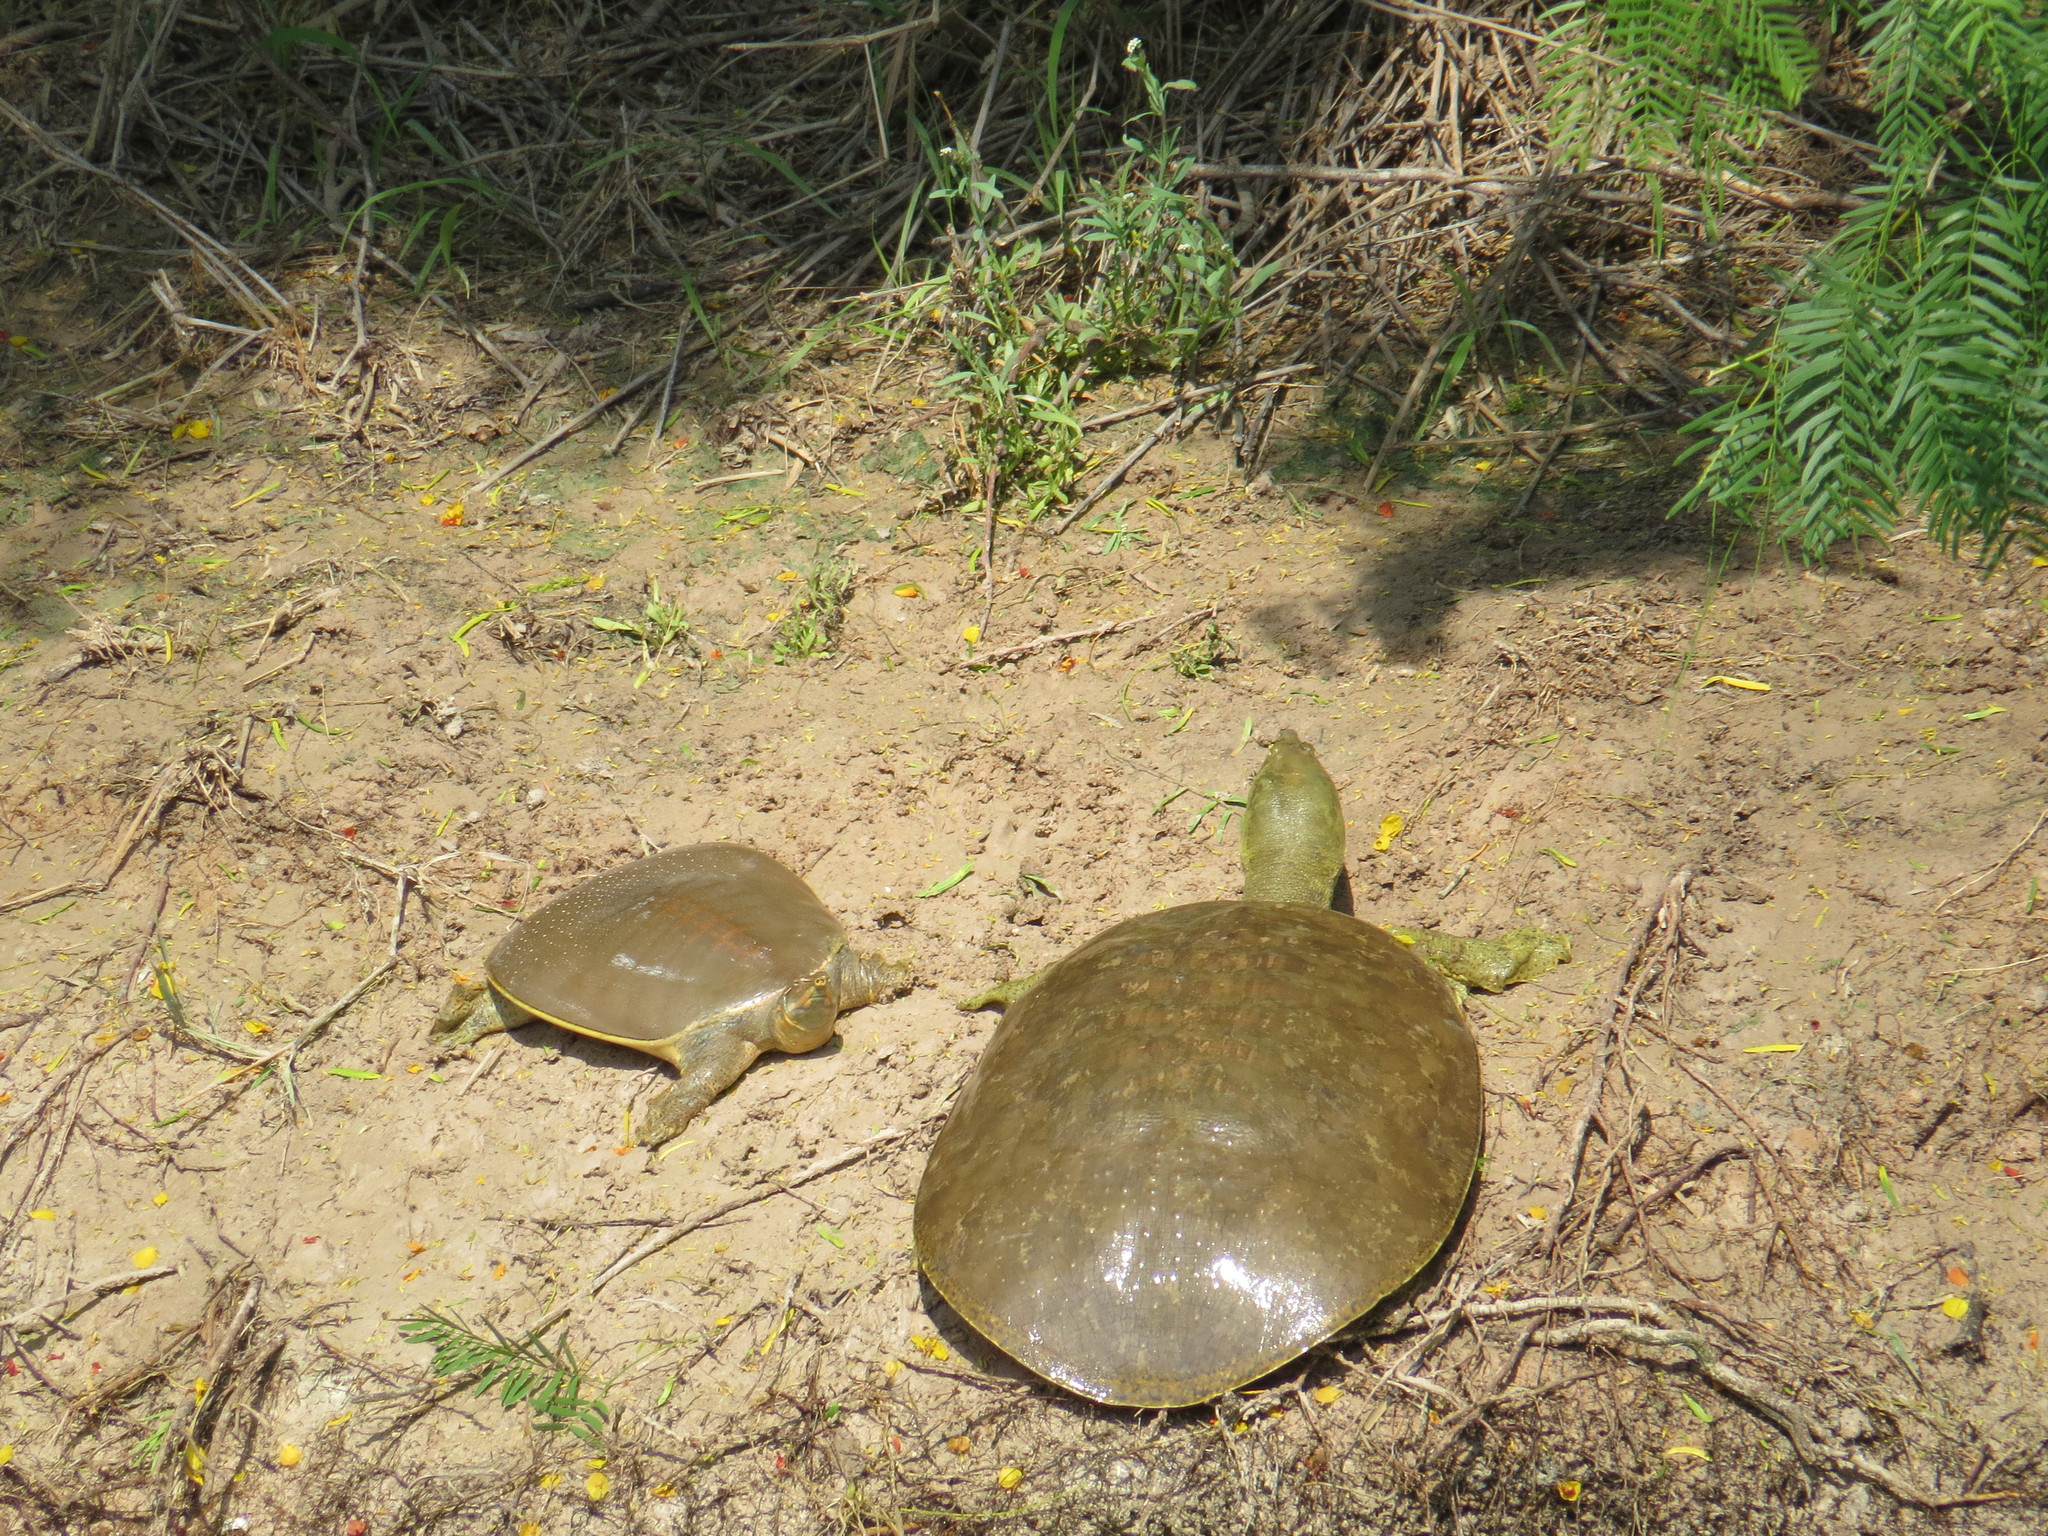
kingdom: Animalia
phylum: Chordata
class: Testudines
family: Trionychidae
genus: Apalone
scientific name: Apalone spinifera
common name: Spiny softshell turtle
